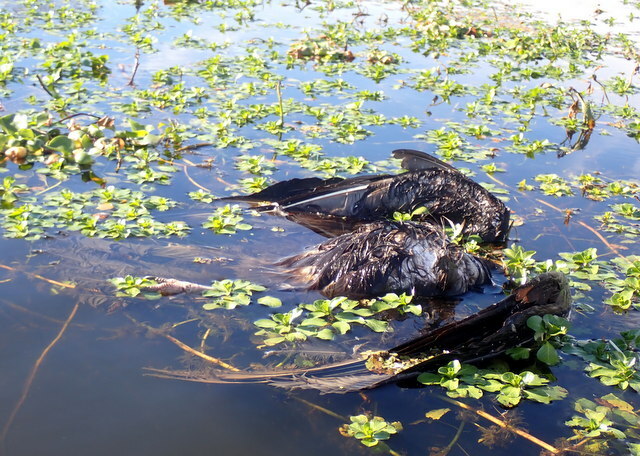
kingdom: Animalia
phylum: Chordata
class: Aves
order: Accipitriformes
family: Cathartidae
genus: Cathartes
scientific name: Cathartes aura
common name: Turkey vulture
